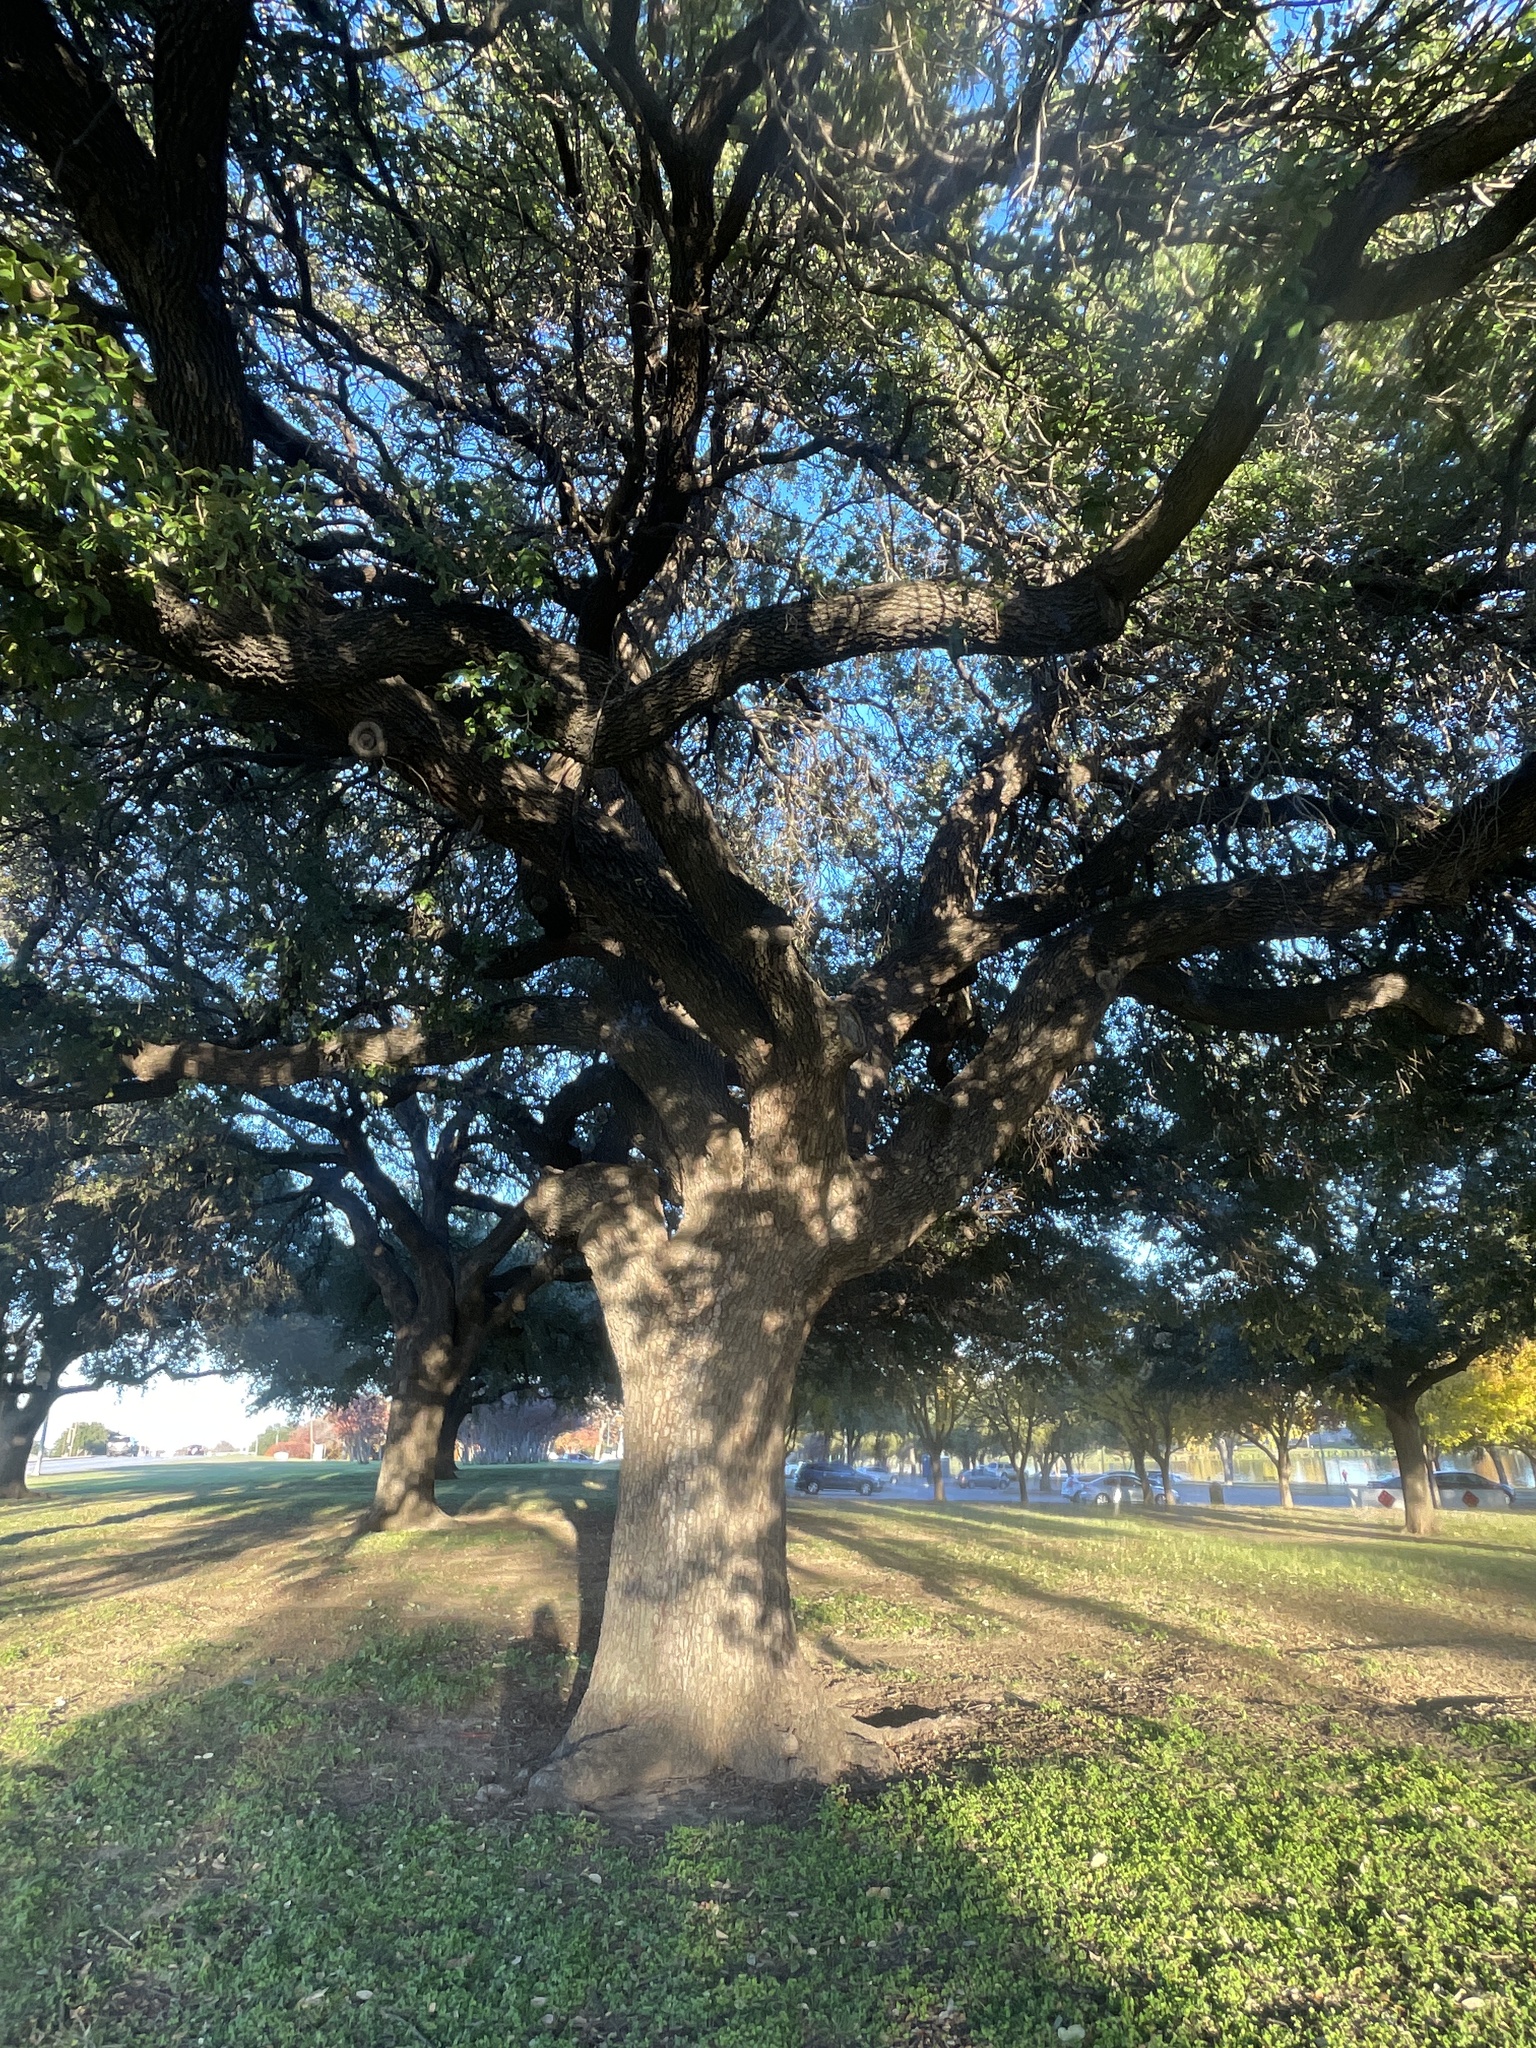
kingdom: Plantae
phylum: Tracheophyta
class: Magnoliopsida
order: Fagales
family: Fagaceae
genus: Quercus
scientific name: Quercus fusiformis
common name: Texas live oak
